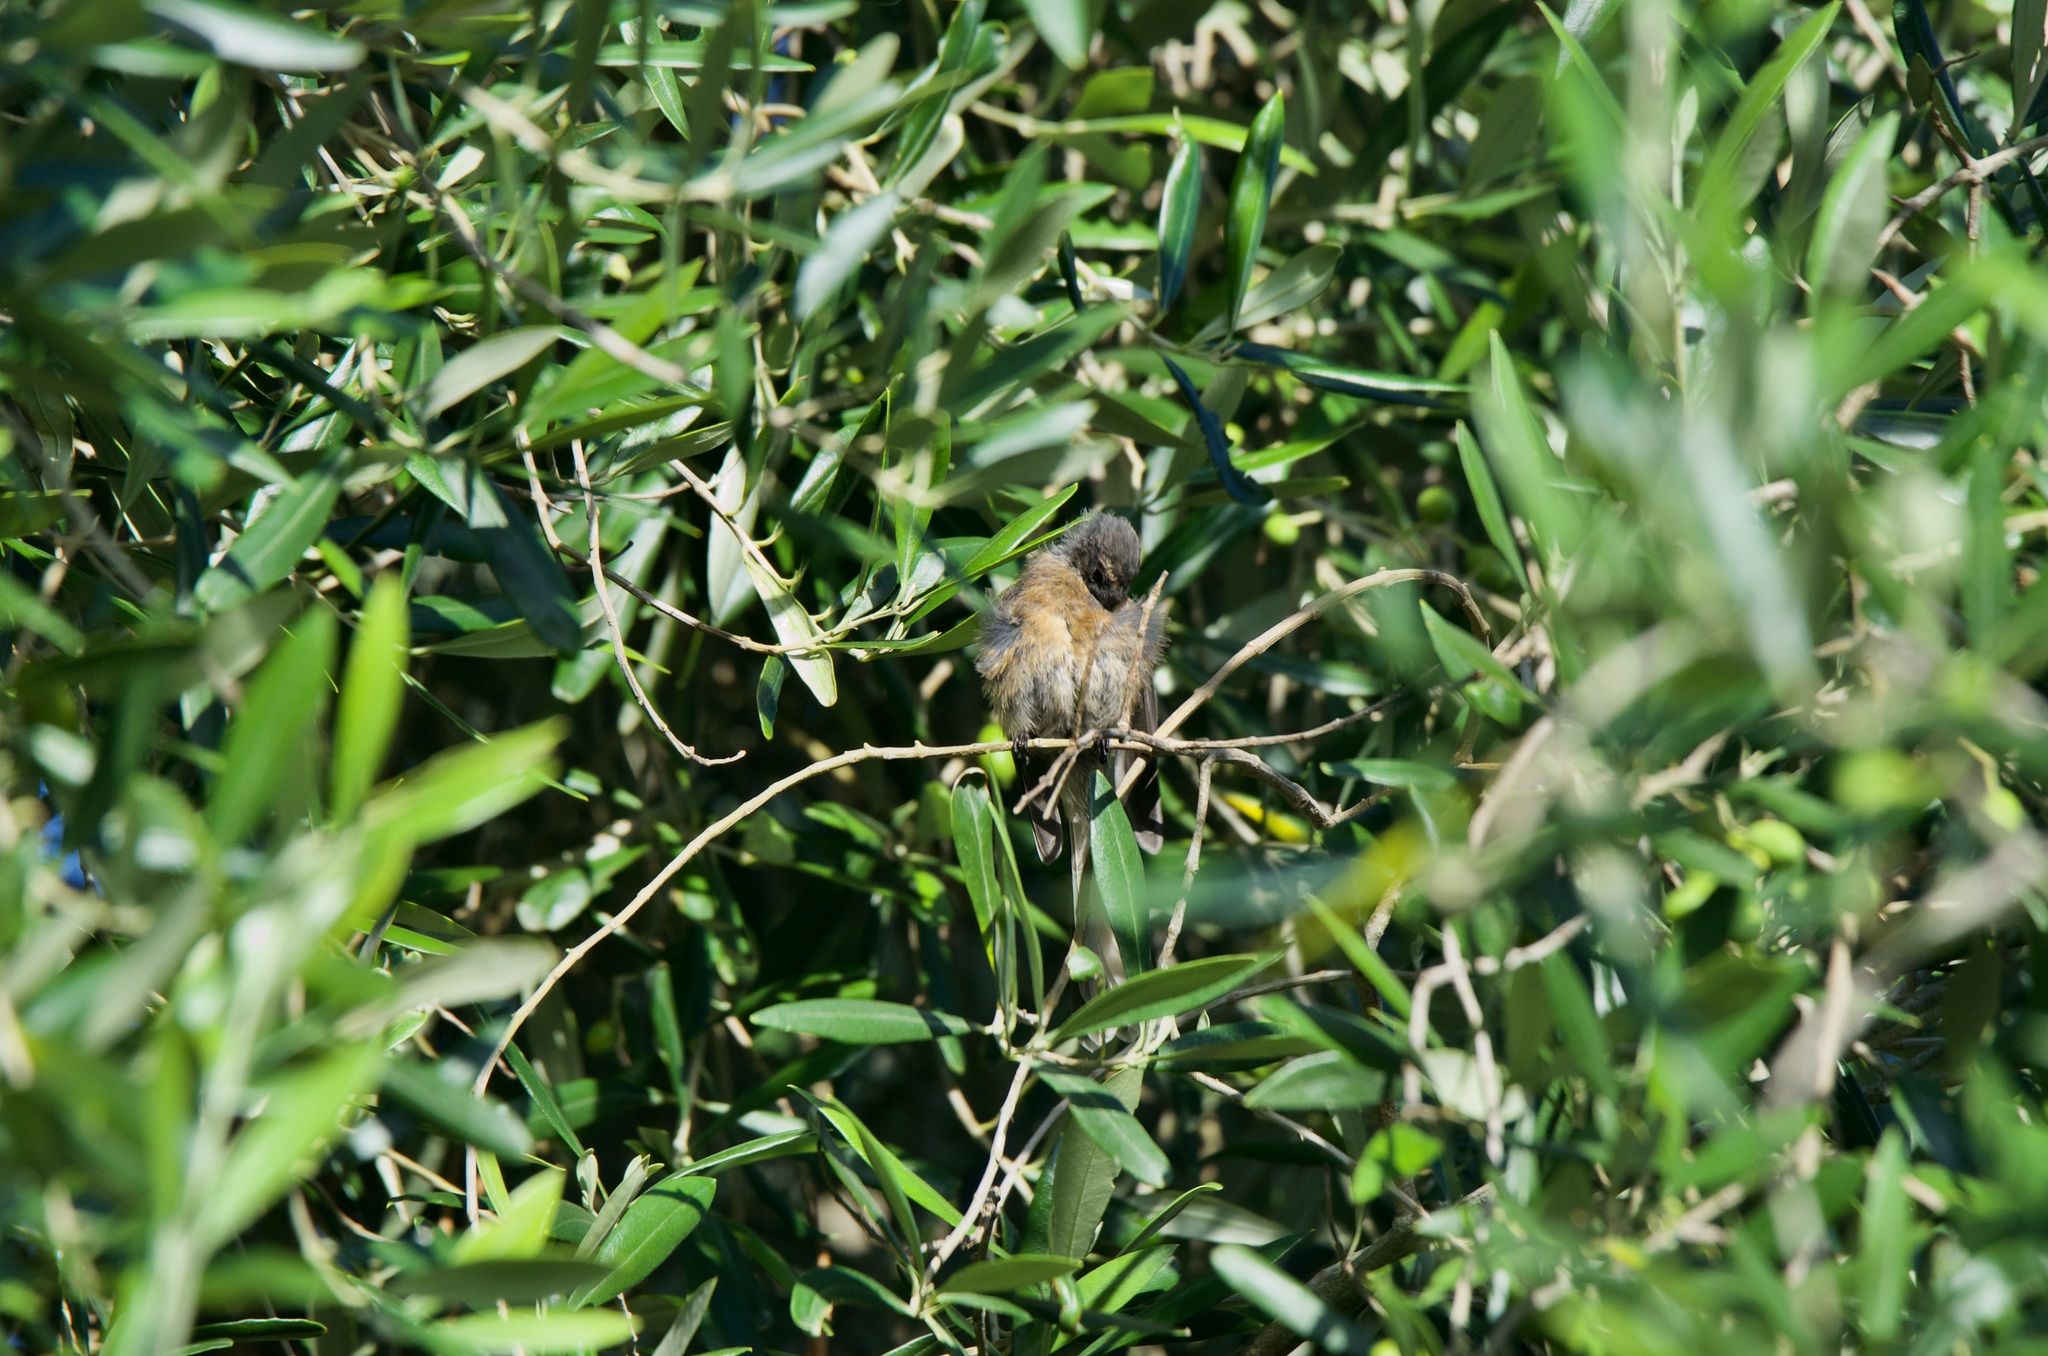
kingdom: Animalia
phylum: Chordata
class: Aves
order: Passeriformes
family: Rhipiduridae
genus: Rhipidura
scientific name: Rhipidura fuliginosa
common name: New zealand fantail
